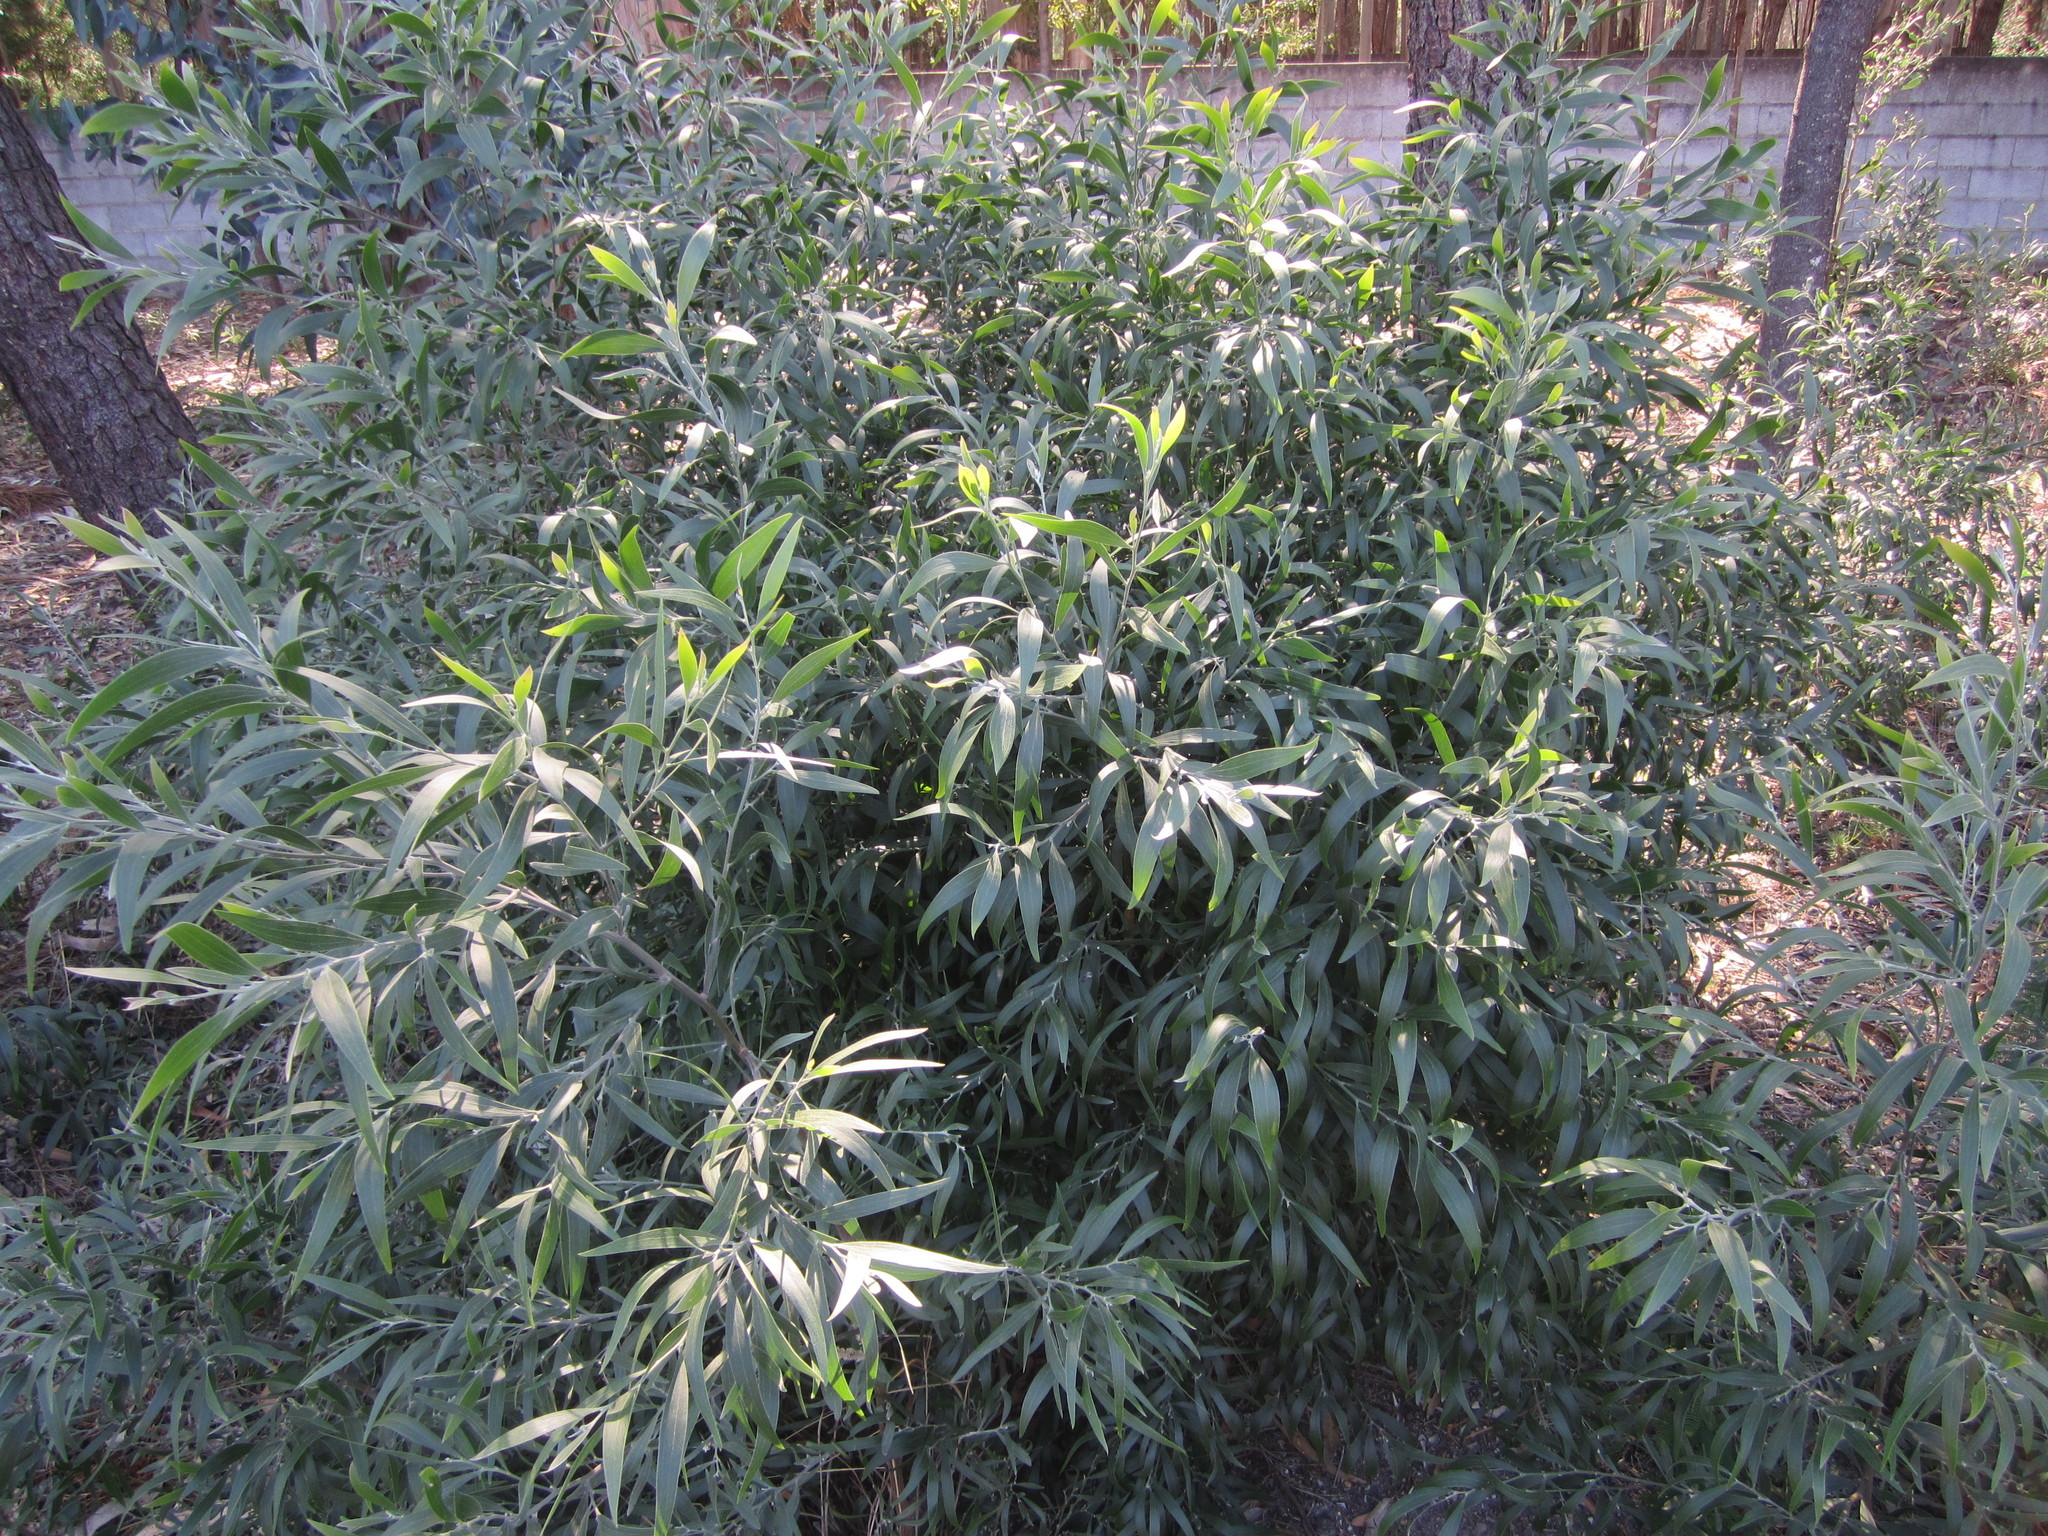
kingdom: Plantae
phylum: Tracheophyta
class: Magnoliopsida
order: Fabales
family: Fabaceae
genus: Acacia
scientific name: Acacia melanoxylon
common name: Blackwood
